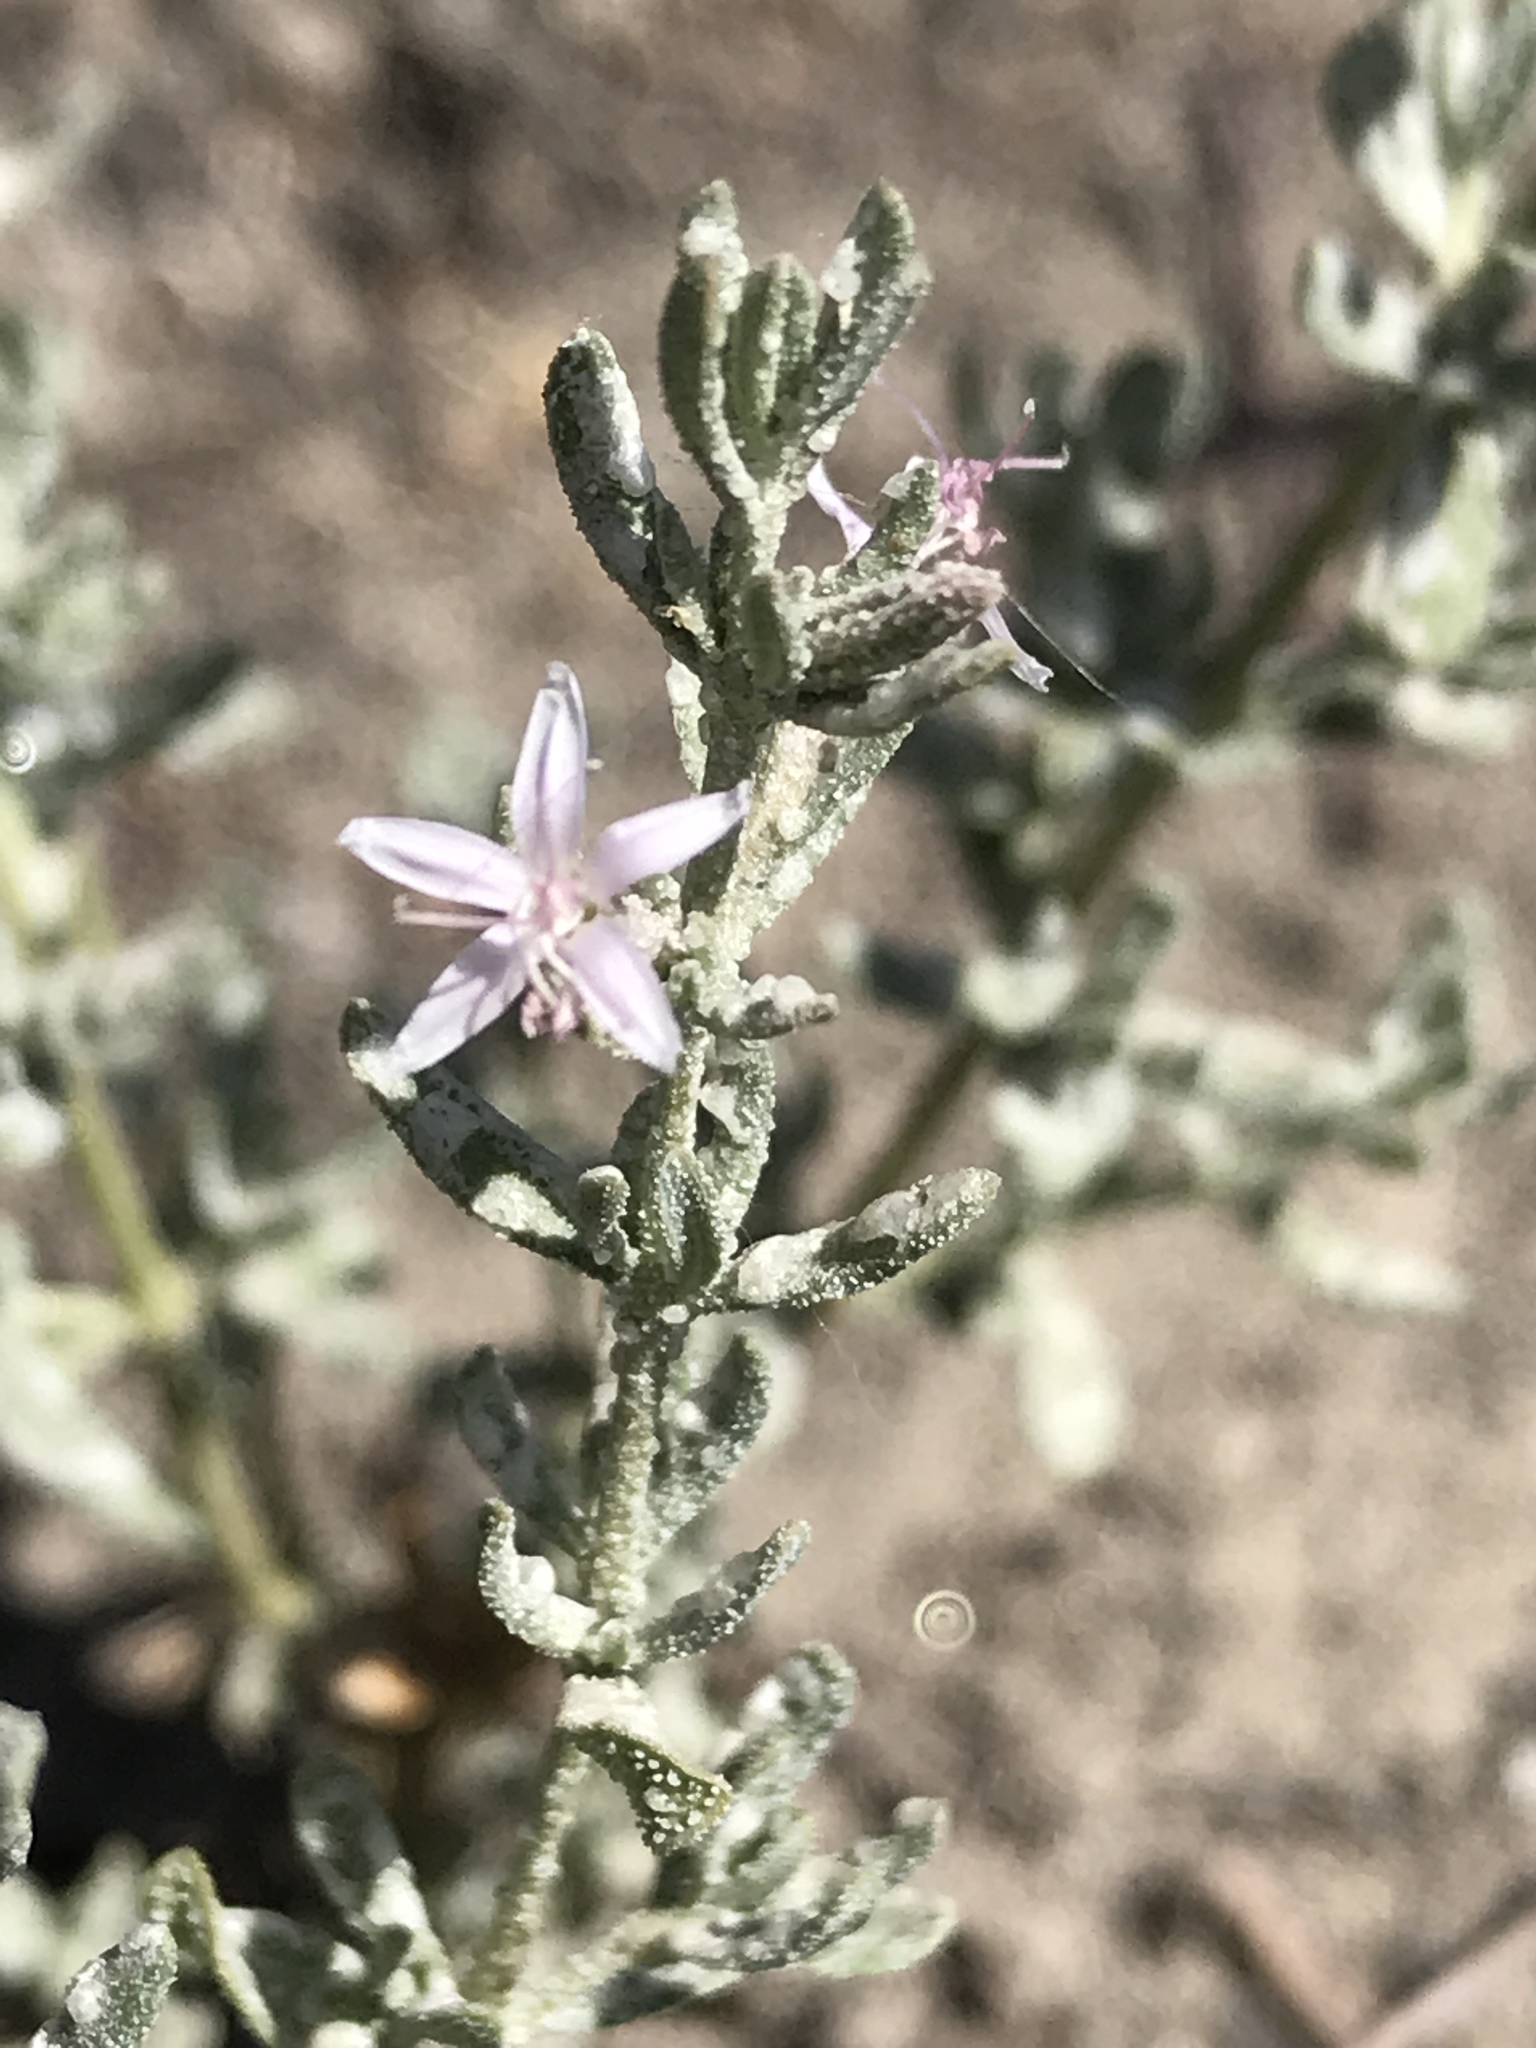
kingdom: Plantae
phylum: Tracheophyta
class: Magnoliopsida
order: Caryophyllales
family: Frankeniaceae
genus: Frankenia
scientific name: Frankenia salina
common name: Alkali seaheath
